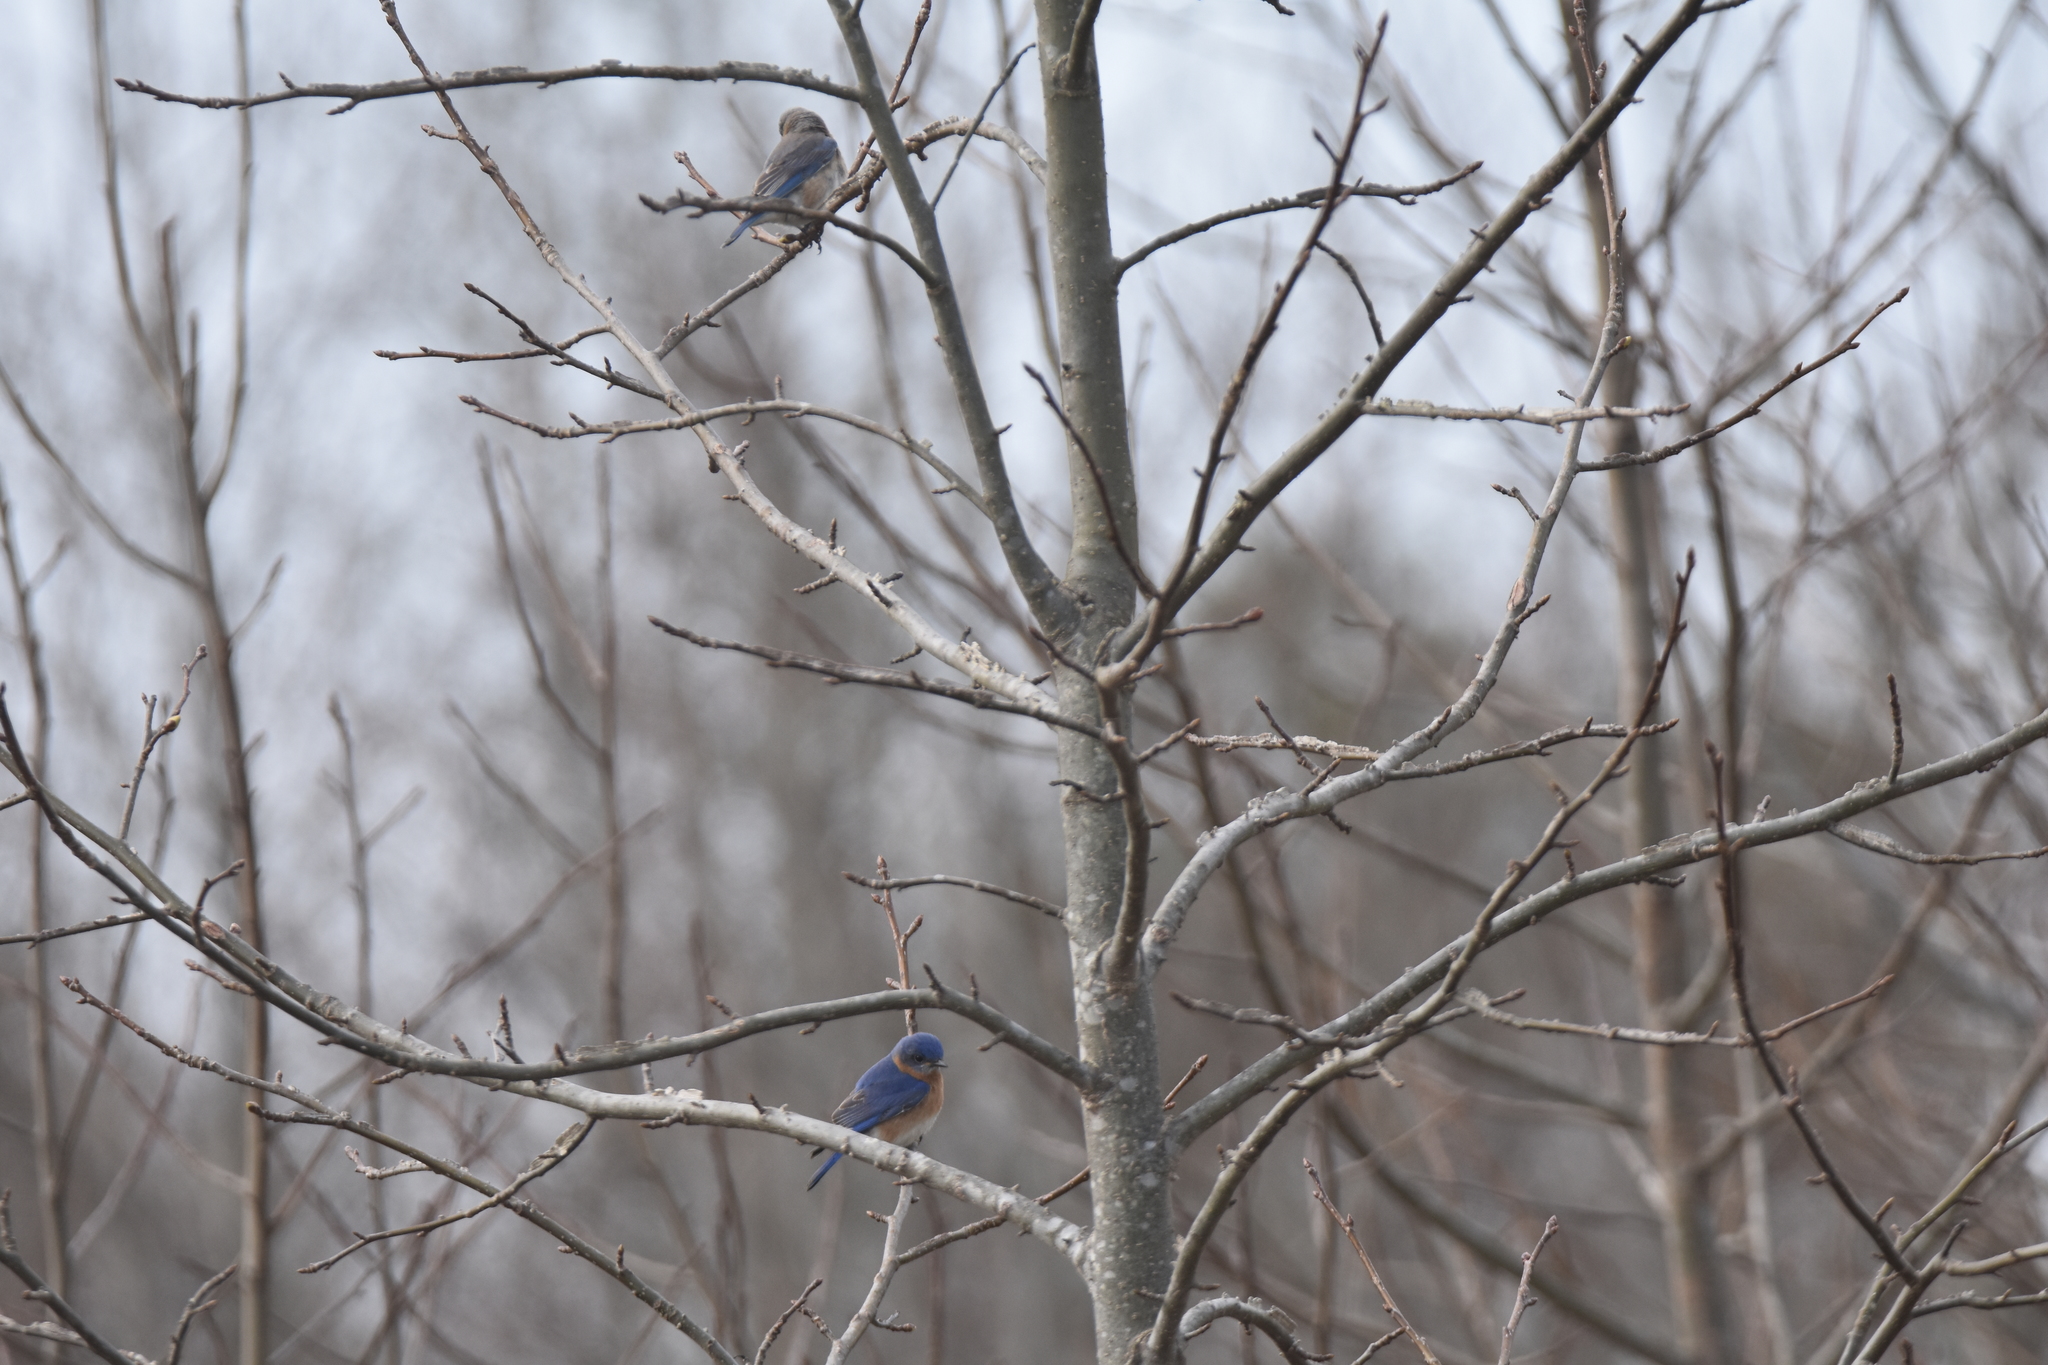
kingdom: Animalia
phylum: Chordata
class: Aves
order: Passeriformes
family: Turdidae
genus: Sialia
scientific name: Sialia sialis
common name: Eastern bluebird
